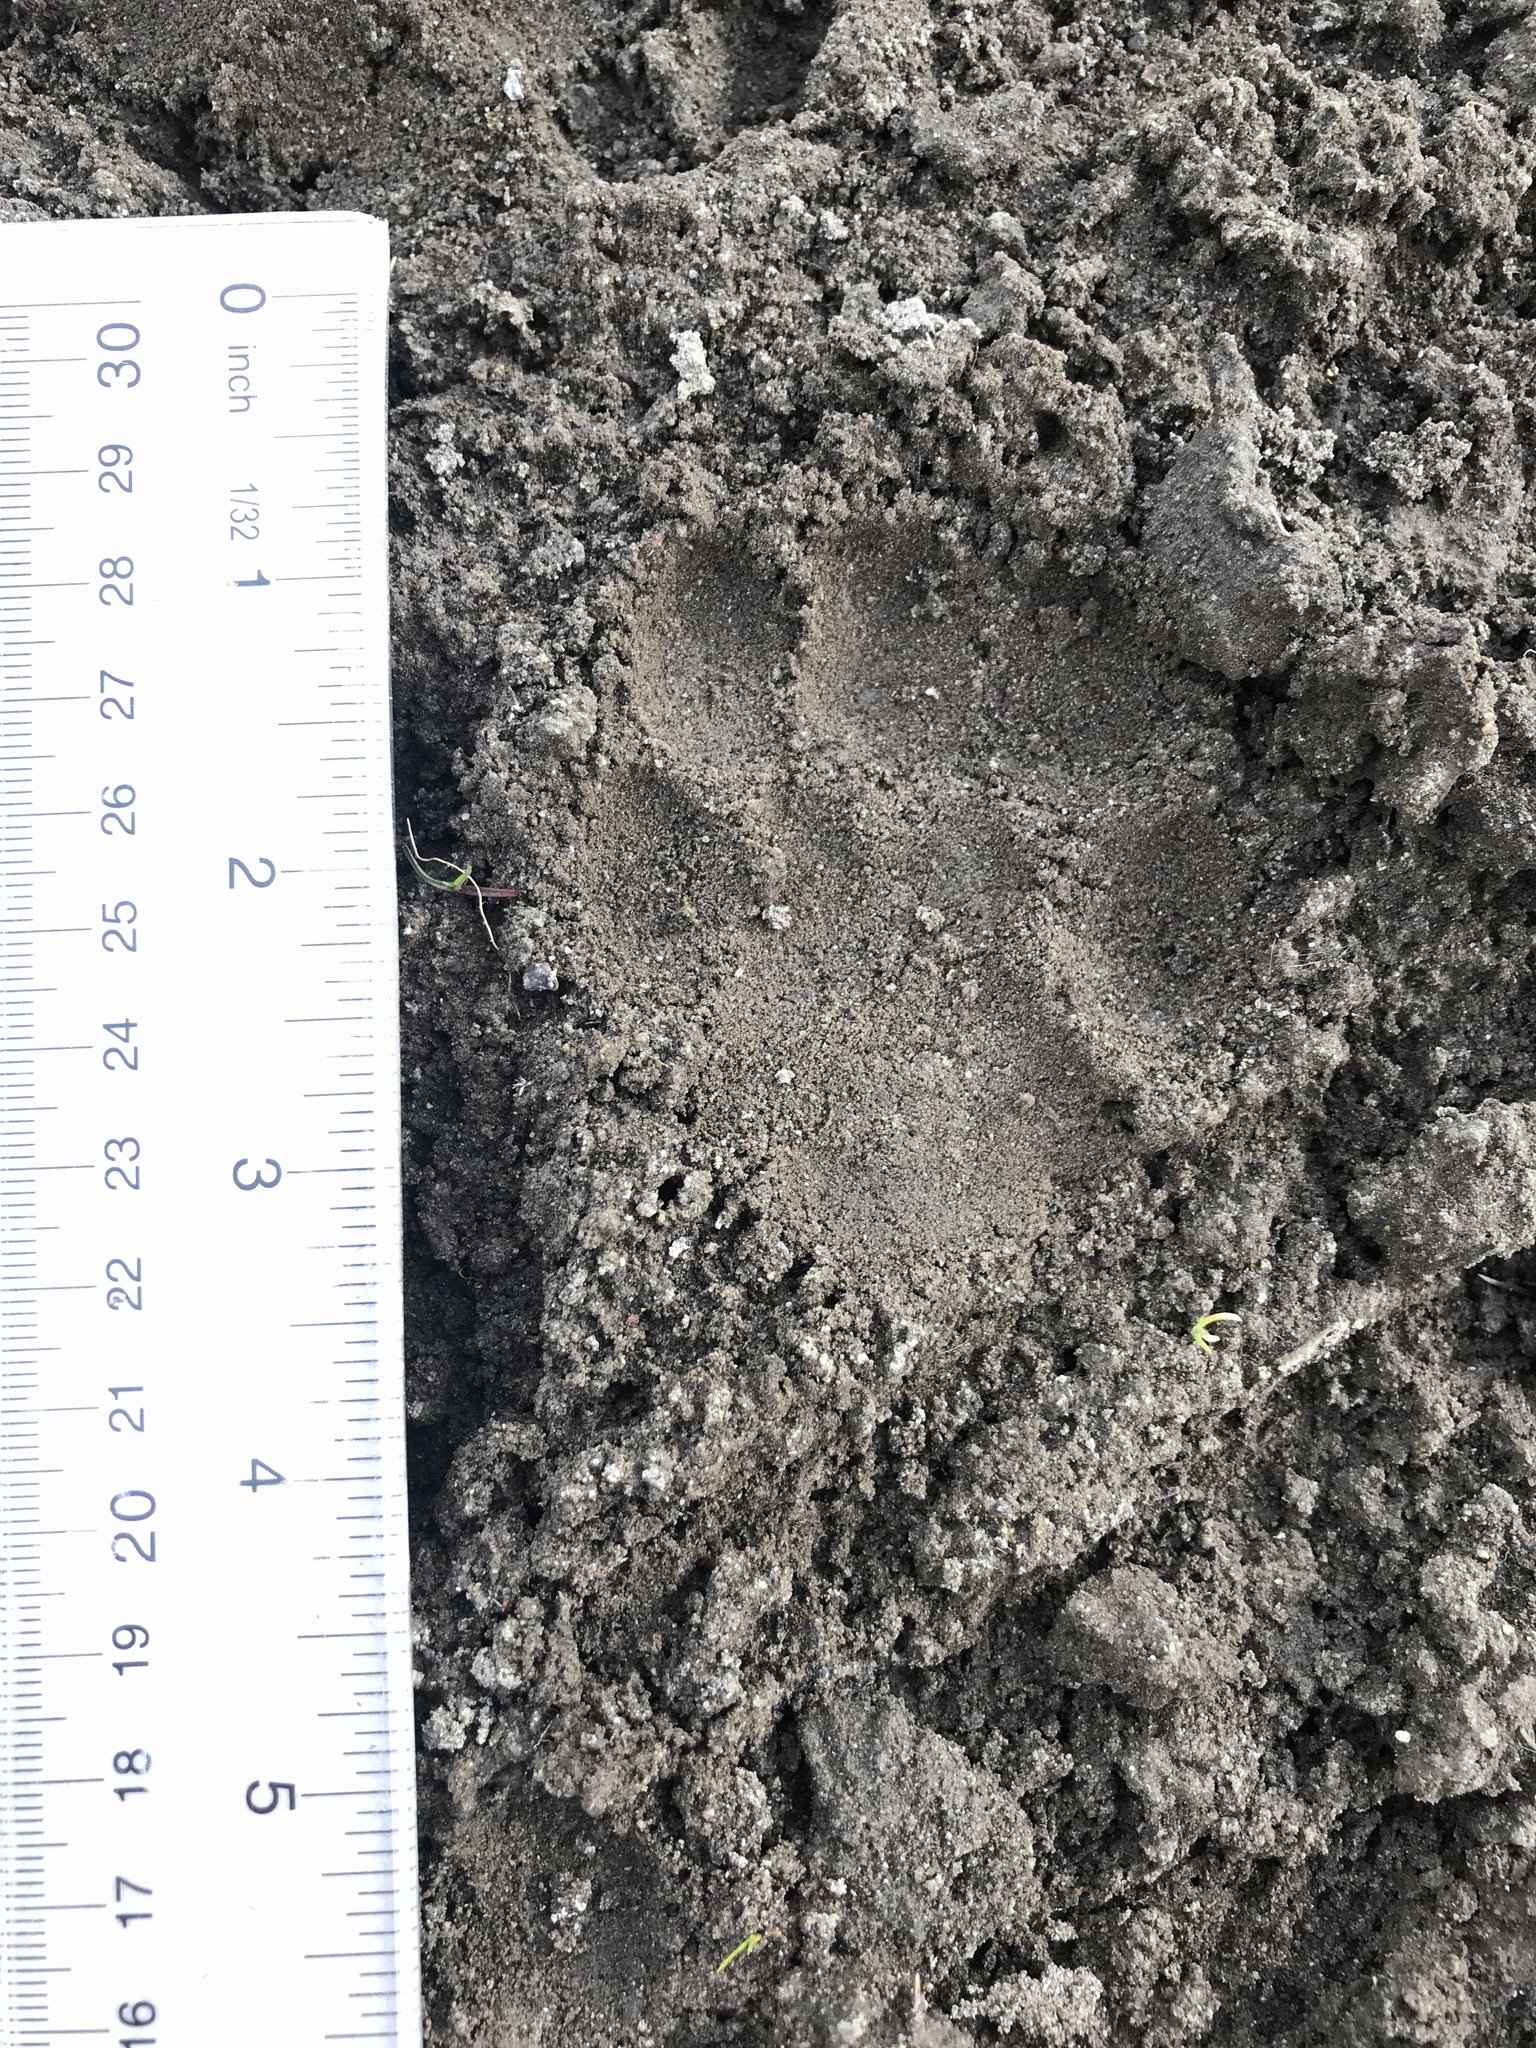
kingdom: Animalia
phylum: Chordata
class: Mammalia
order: Carnivora
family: Canidae
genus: Canis
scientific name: Canis latrans
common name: Coyote
